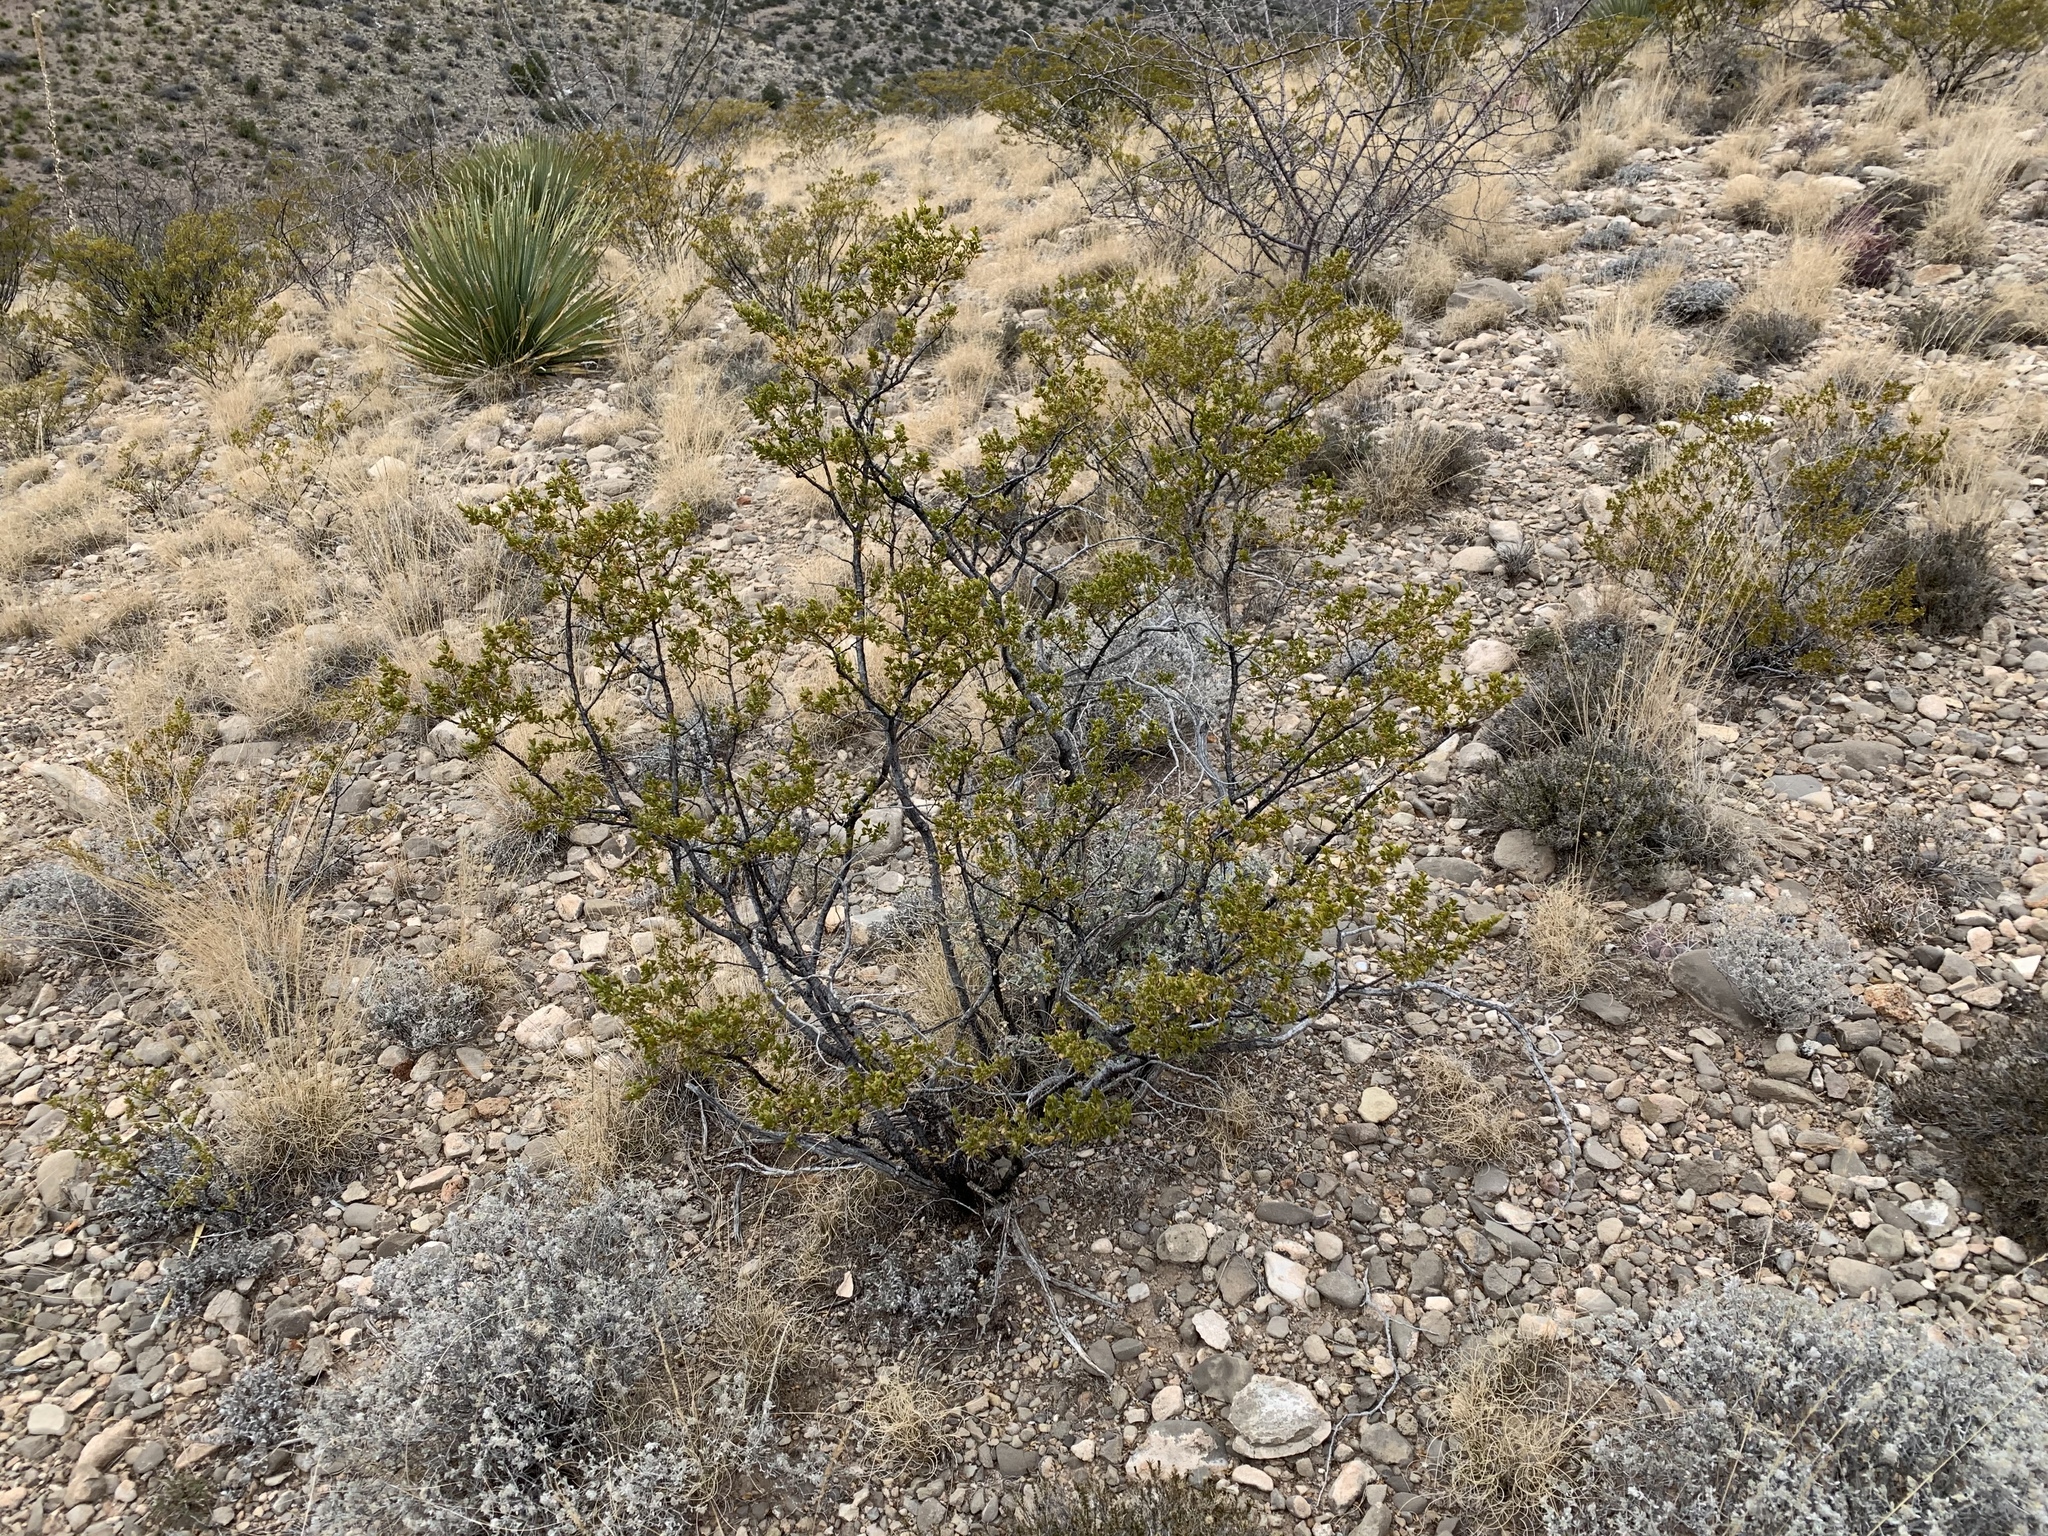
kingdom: Plantae
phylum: Tracheophyta
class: Magnoliopsida
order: Zygophyllales
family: Zygophyllaceae
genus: Larrea
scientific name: Larrea tridentata
